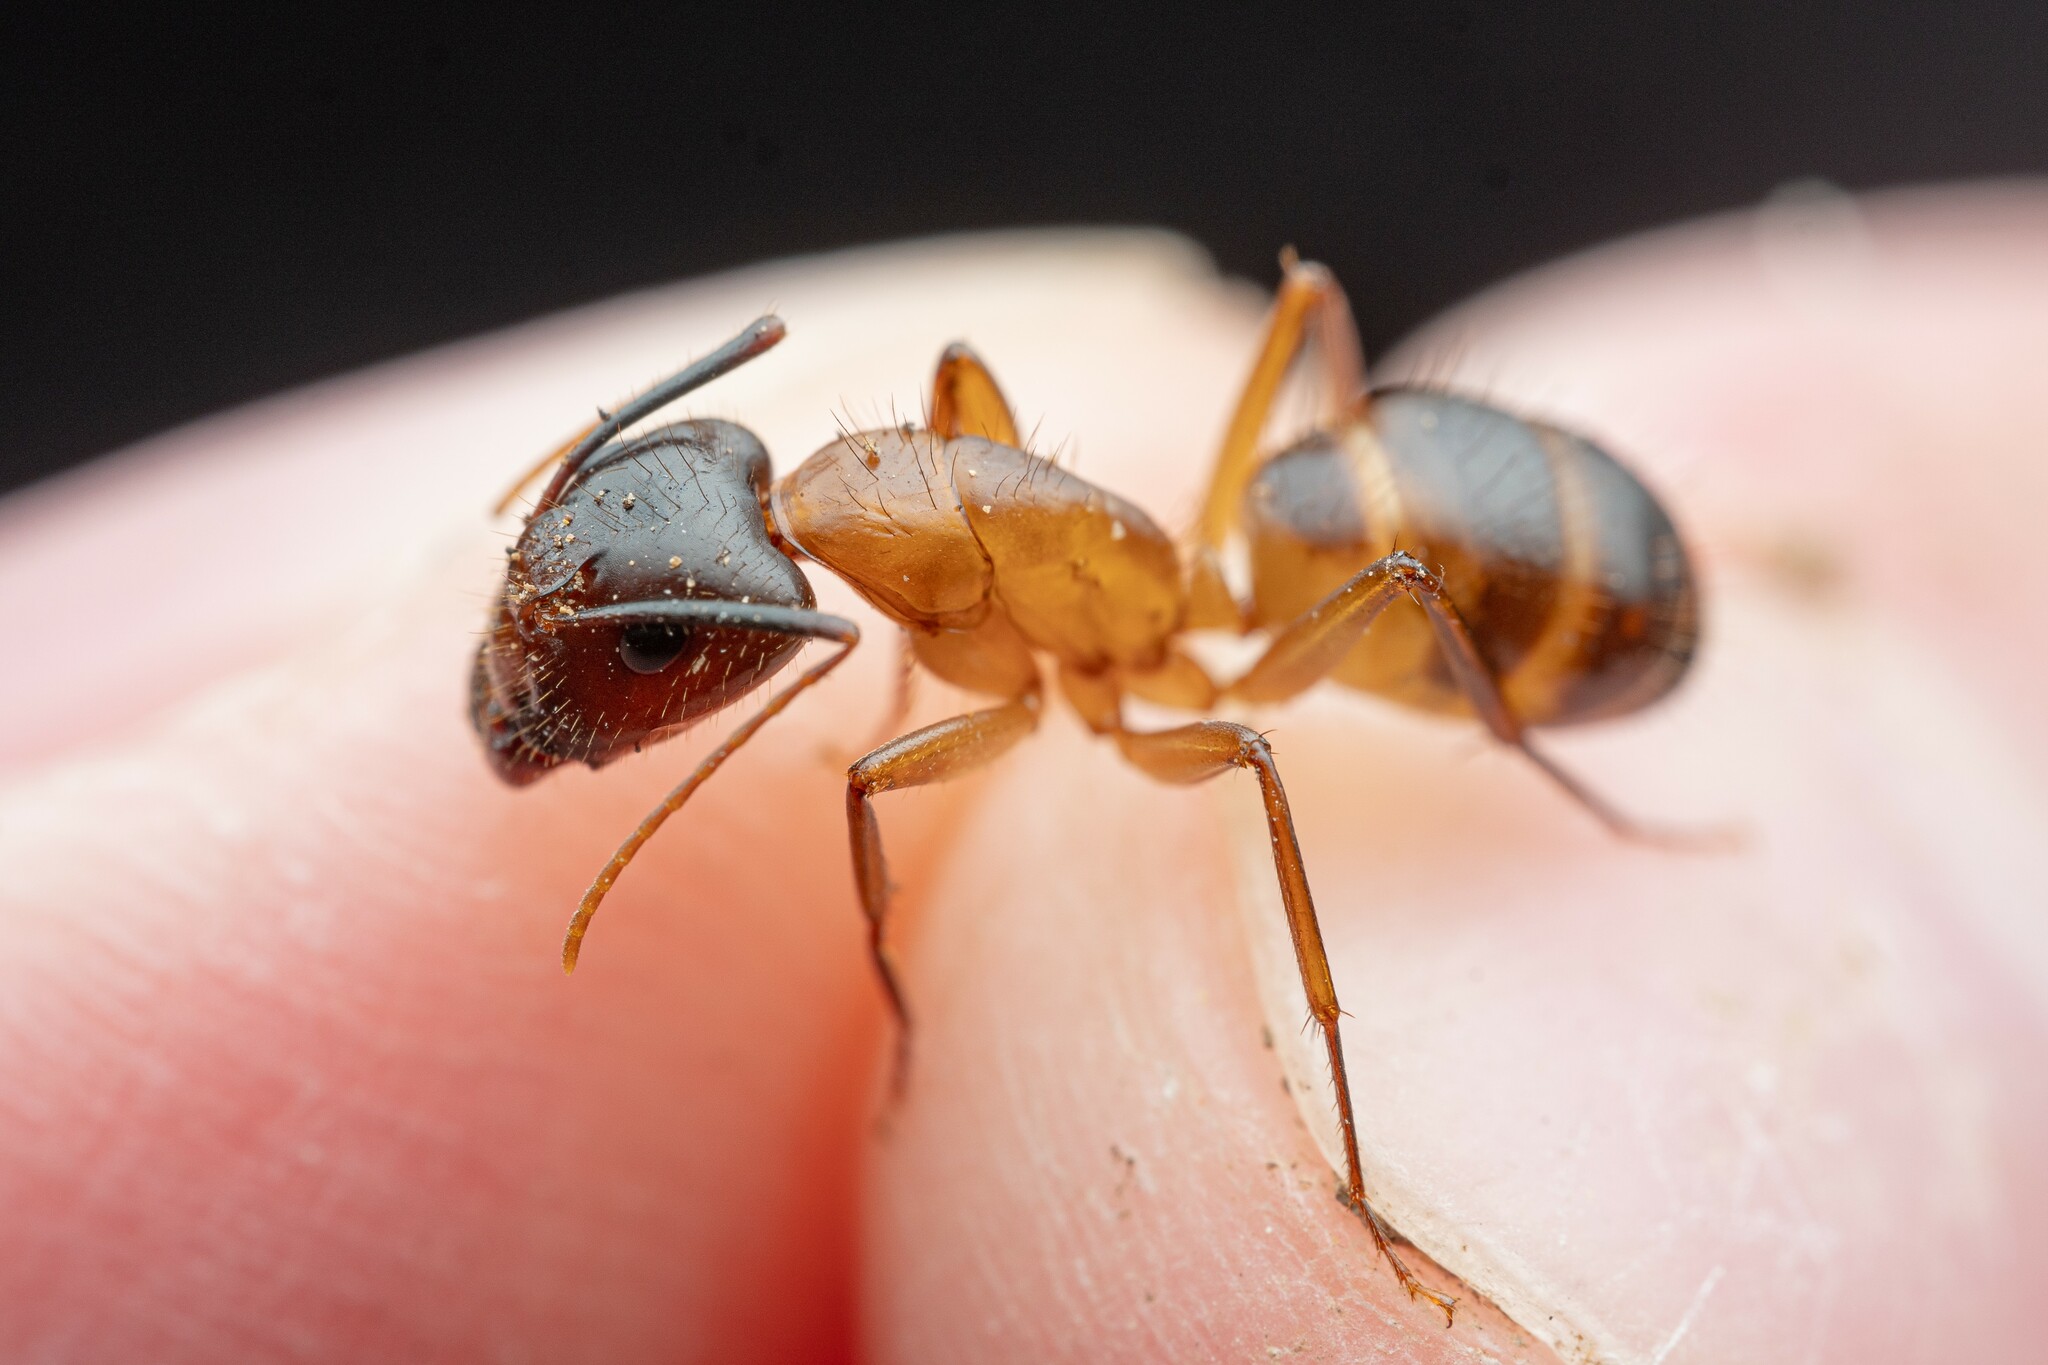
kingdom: Animalia
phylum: Arthropoda
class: Insecta
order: Hymenoptera
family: Formicidae
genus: Camponotus
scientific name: Camponotus pudorosus
